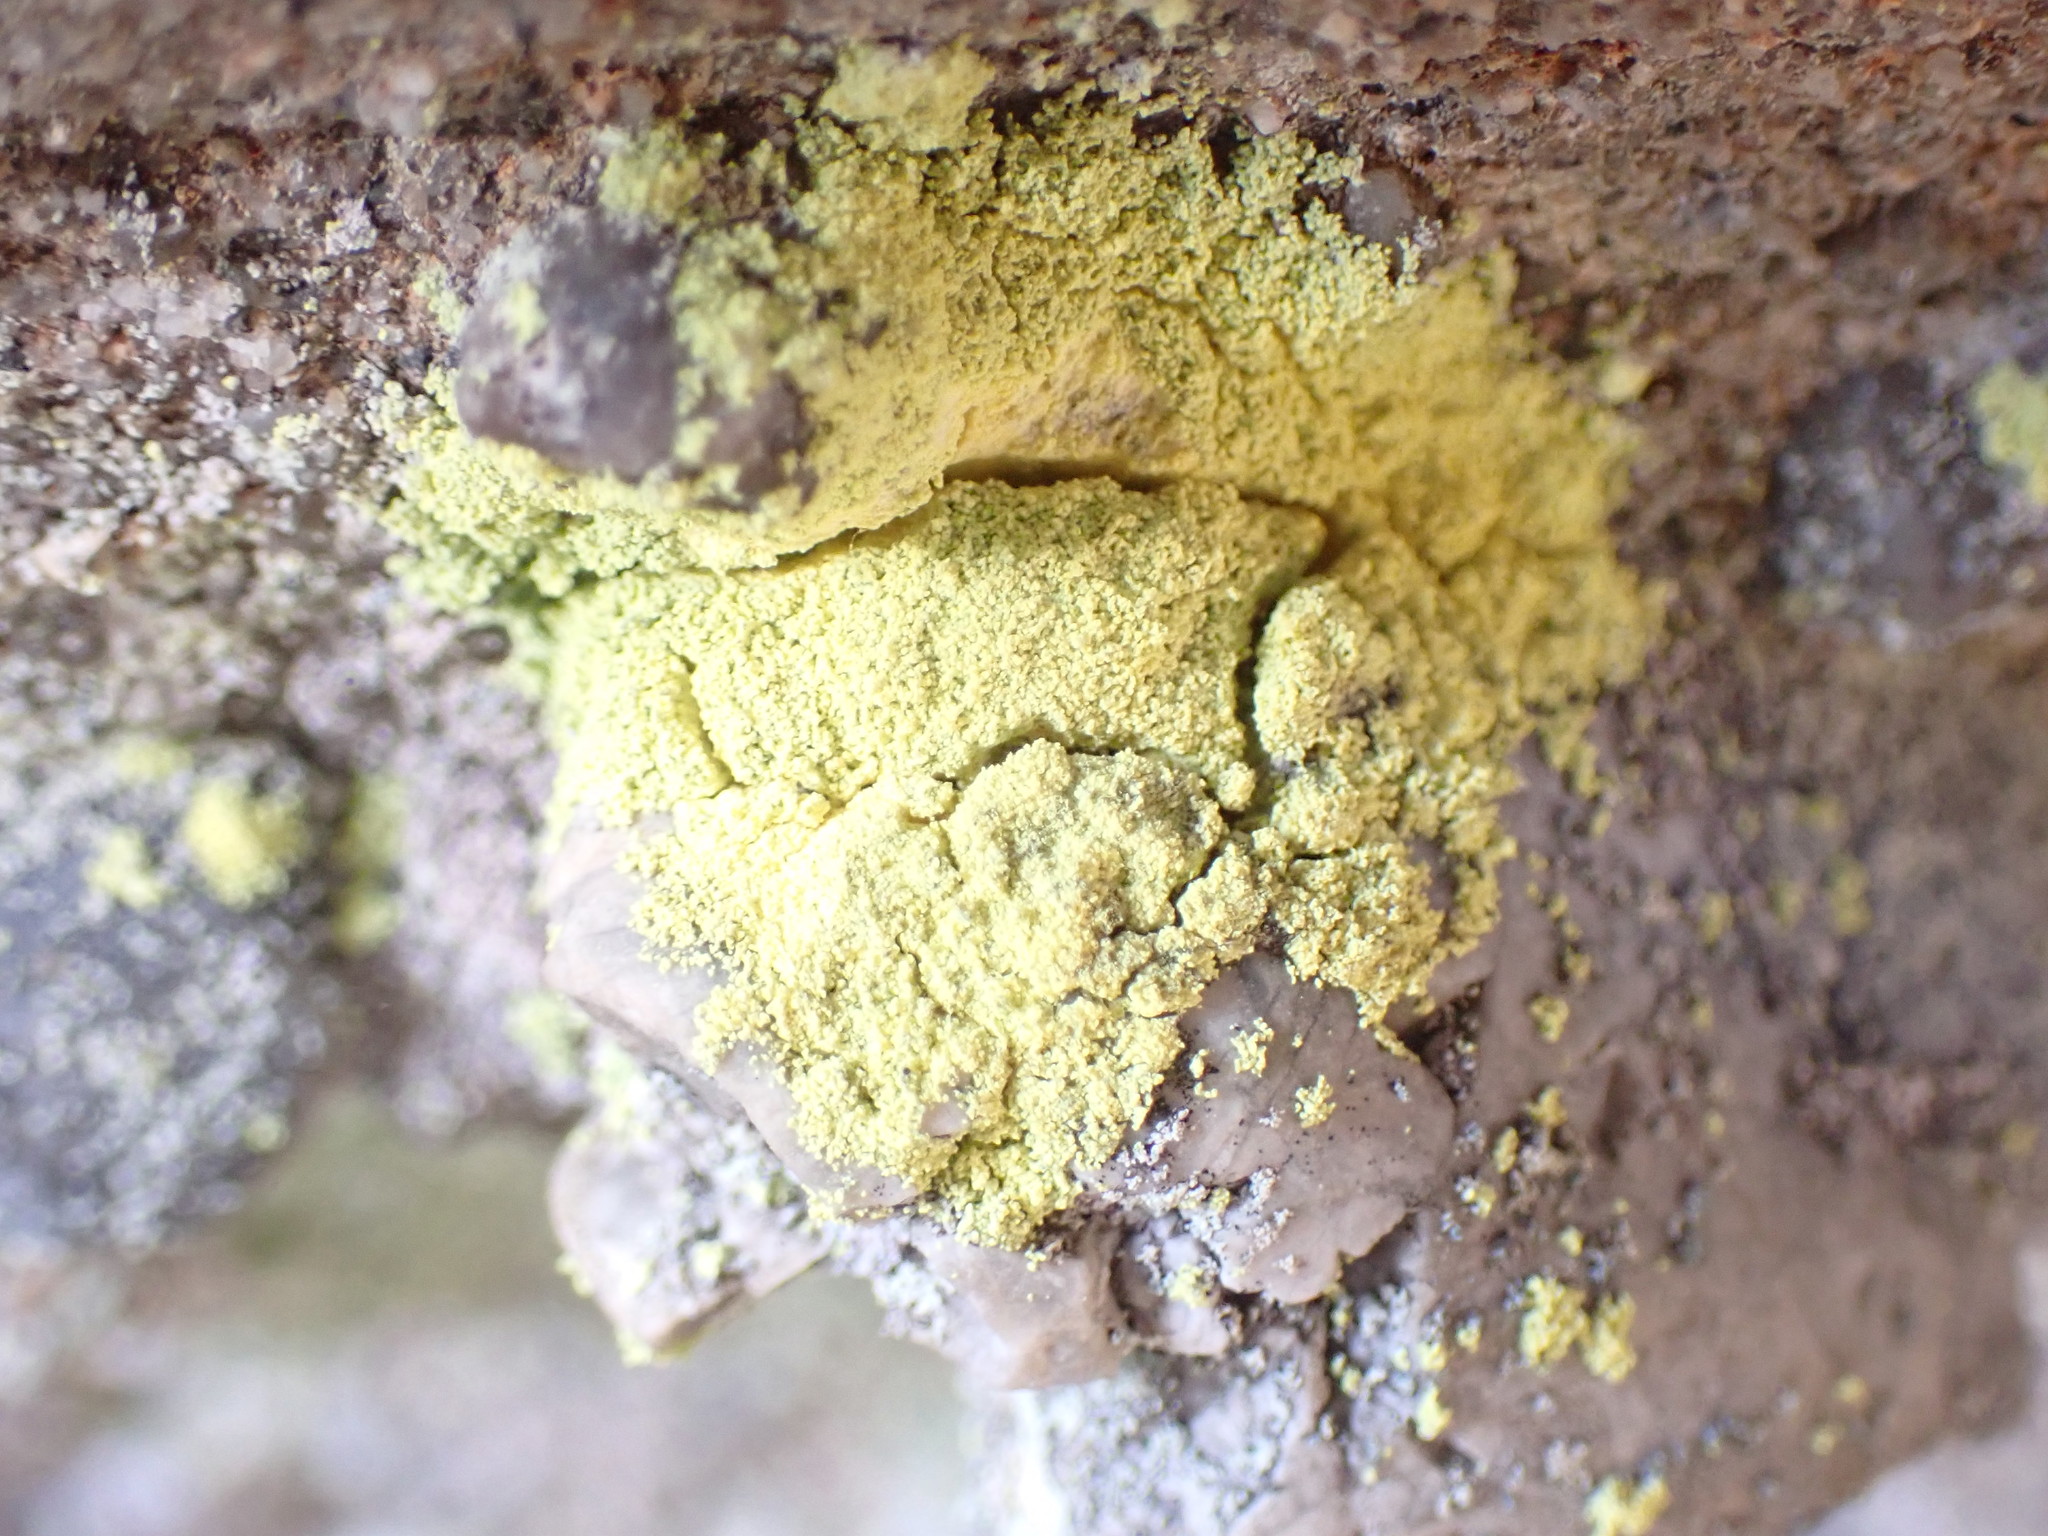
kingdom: Fungi
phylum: Ascomycota
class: Arthoniomycetes
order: Arthoniales
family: Chrysotrichaceae
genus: Chrysothrix
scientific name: Chrysothrix candelaris
